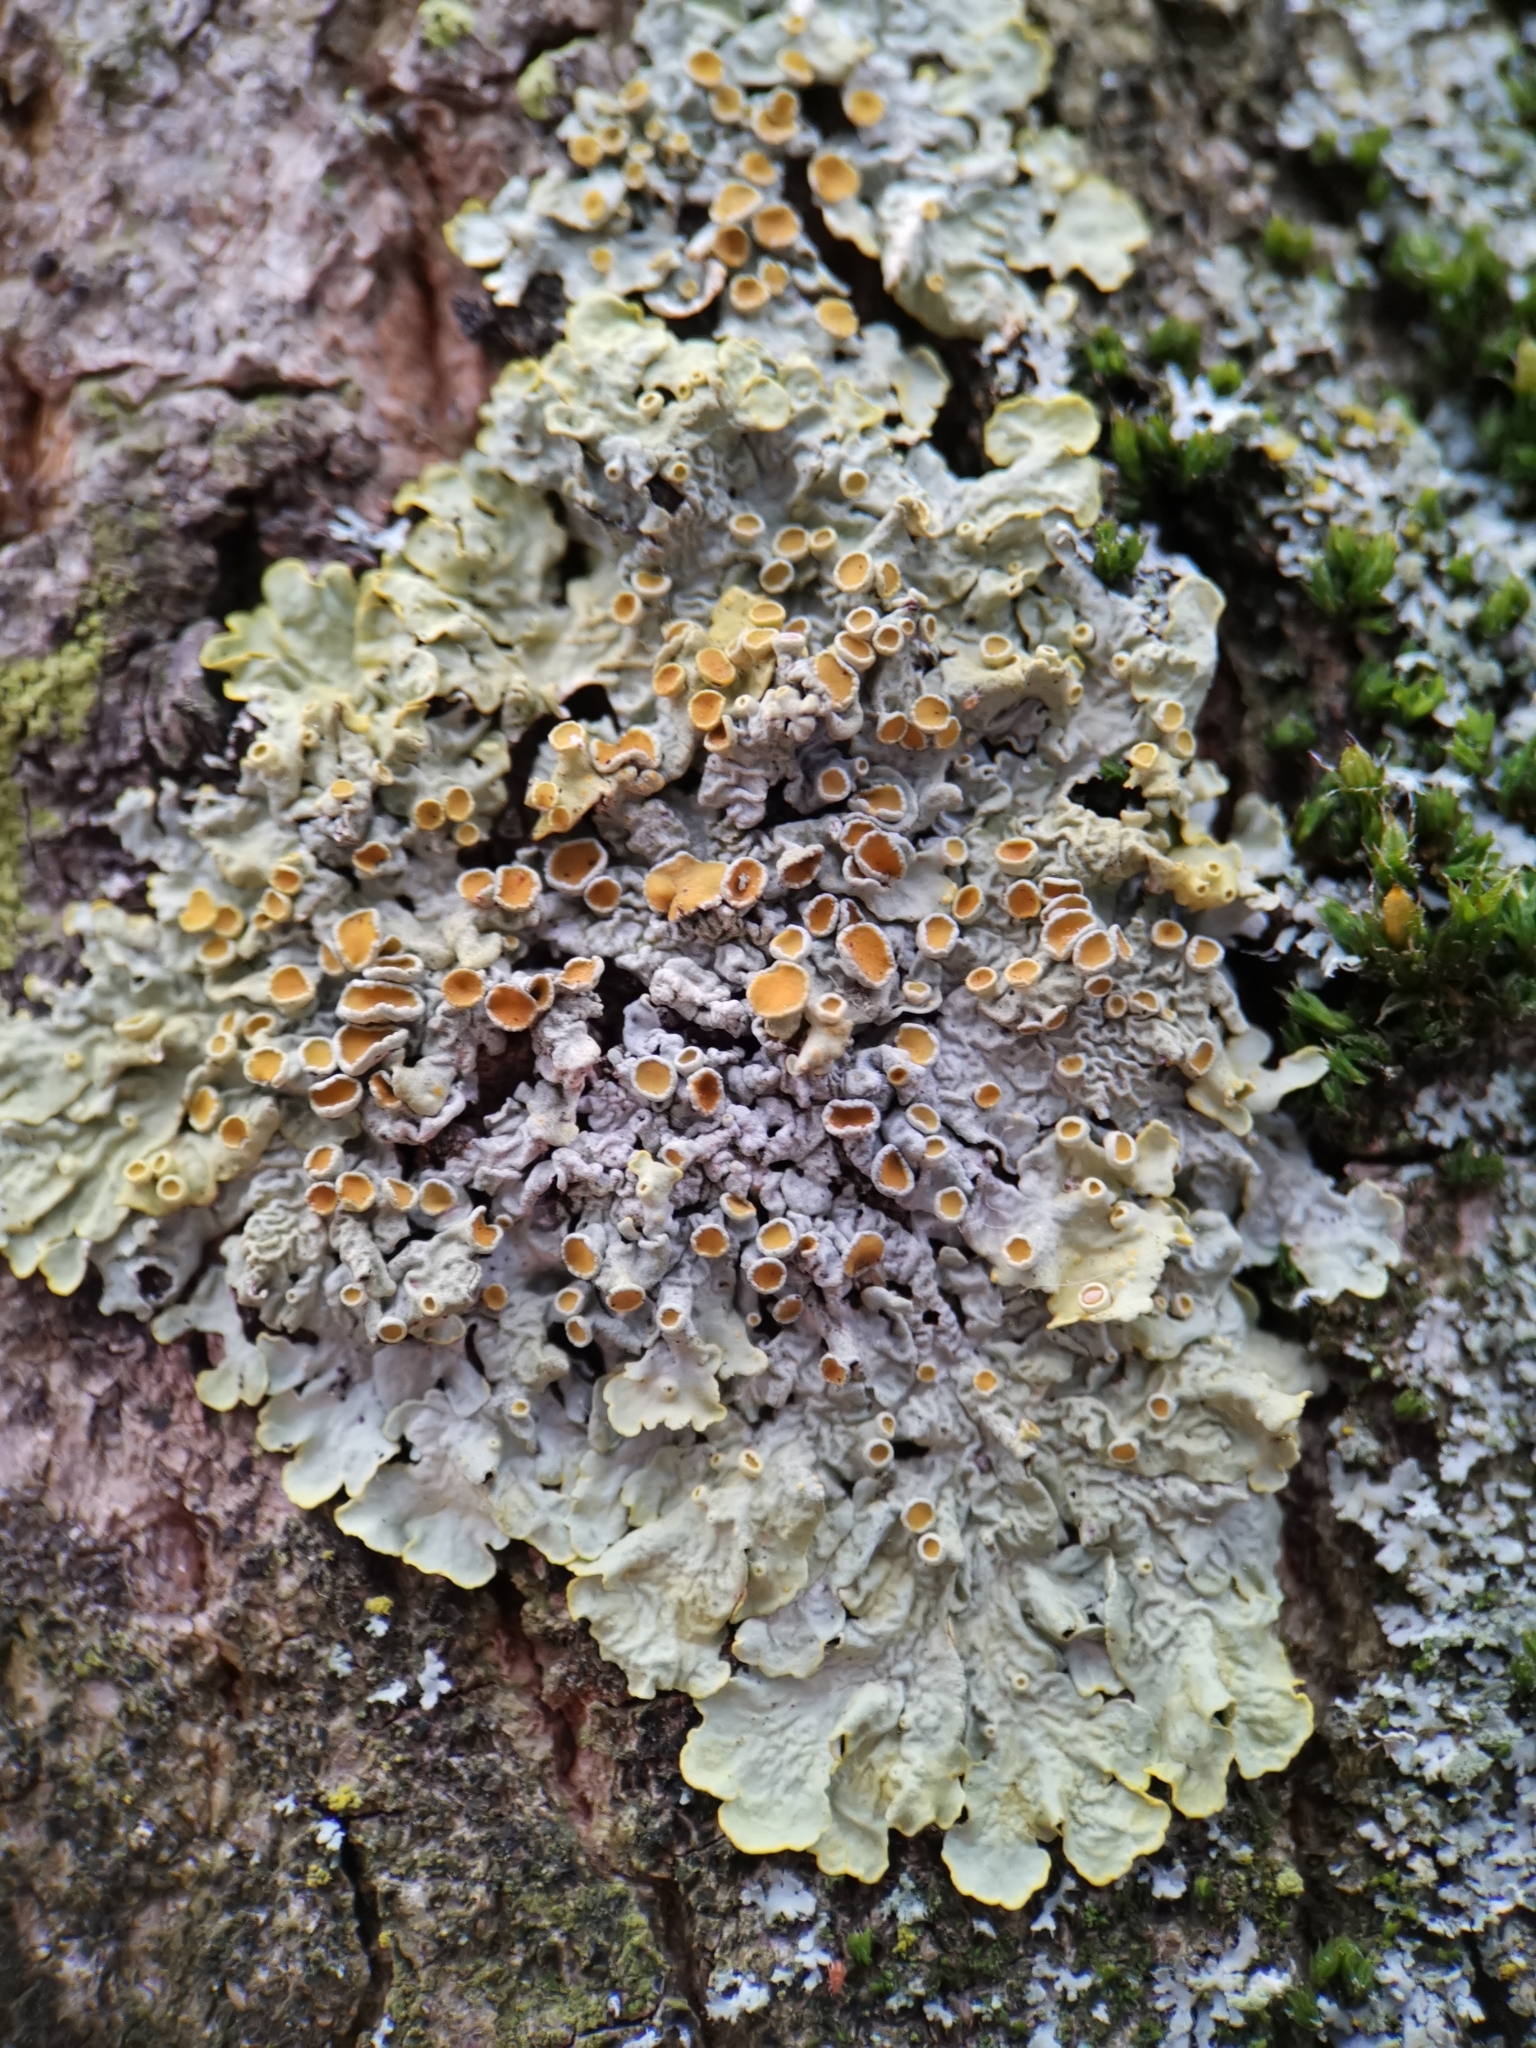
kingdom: Fungi
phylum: Ascomycota
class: Lecanoromycetes
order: Teloschistales
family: Teloschistaceae
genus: Xanthoria
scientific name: Xanthoria parietina
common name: Common orange lichen
